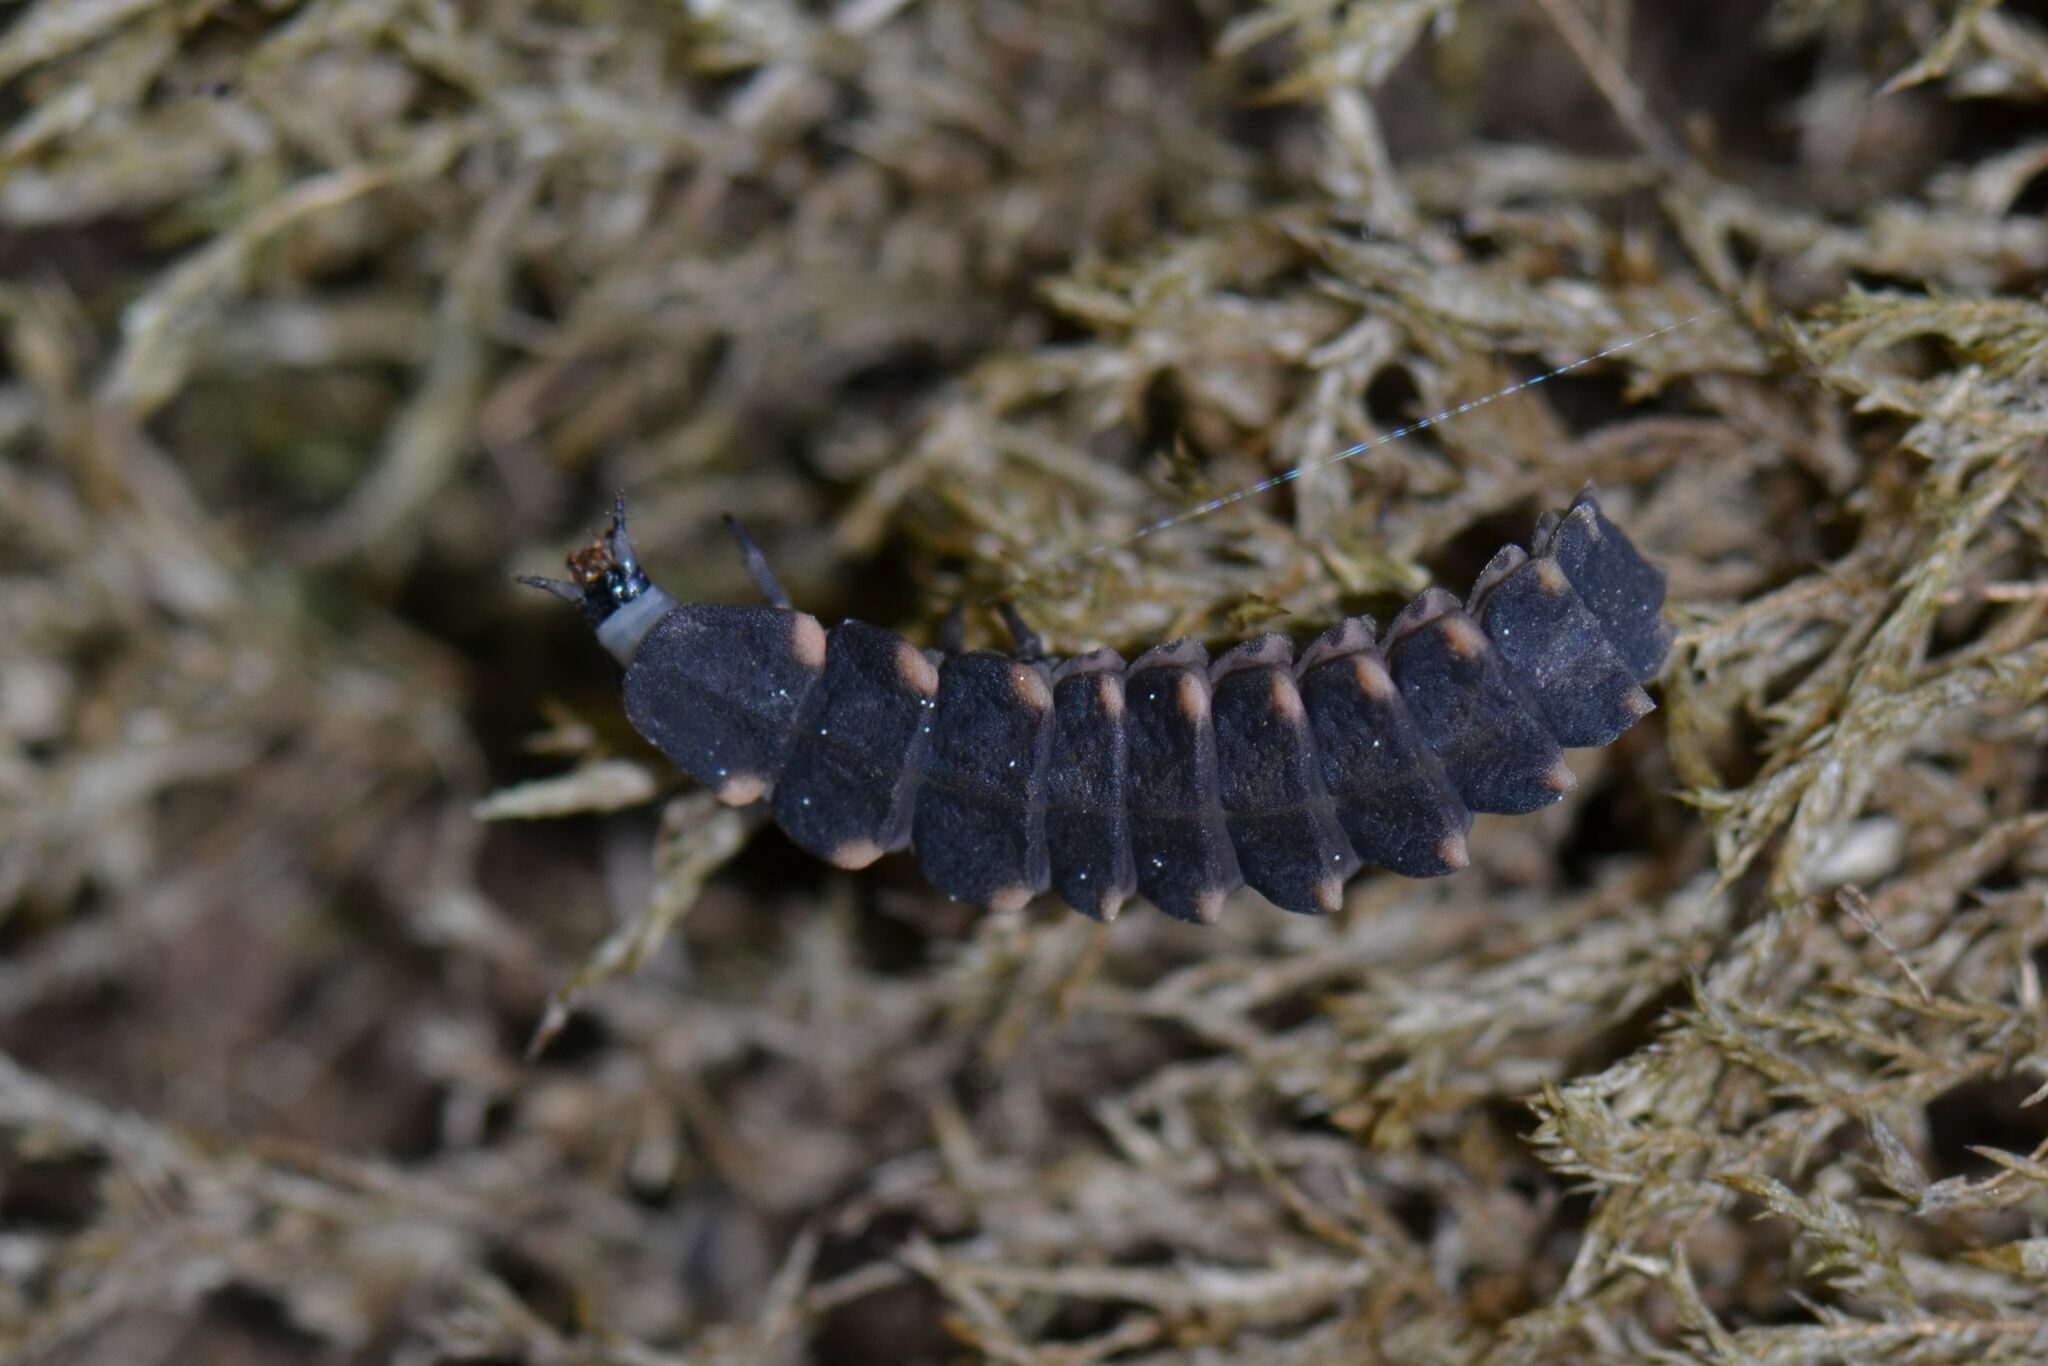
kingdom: Animalia
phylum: Arthropoda
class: Insecta
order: Coleoptera
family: Lampyridae
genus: Lampyris
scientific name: Lampyris noctiluca
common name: Glow-worm
